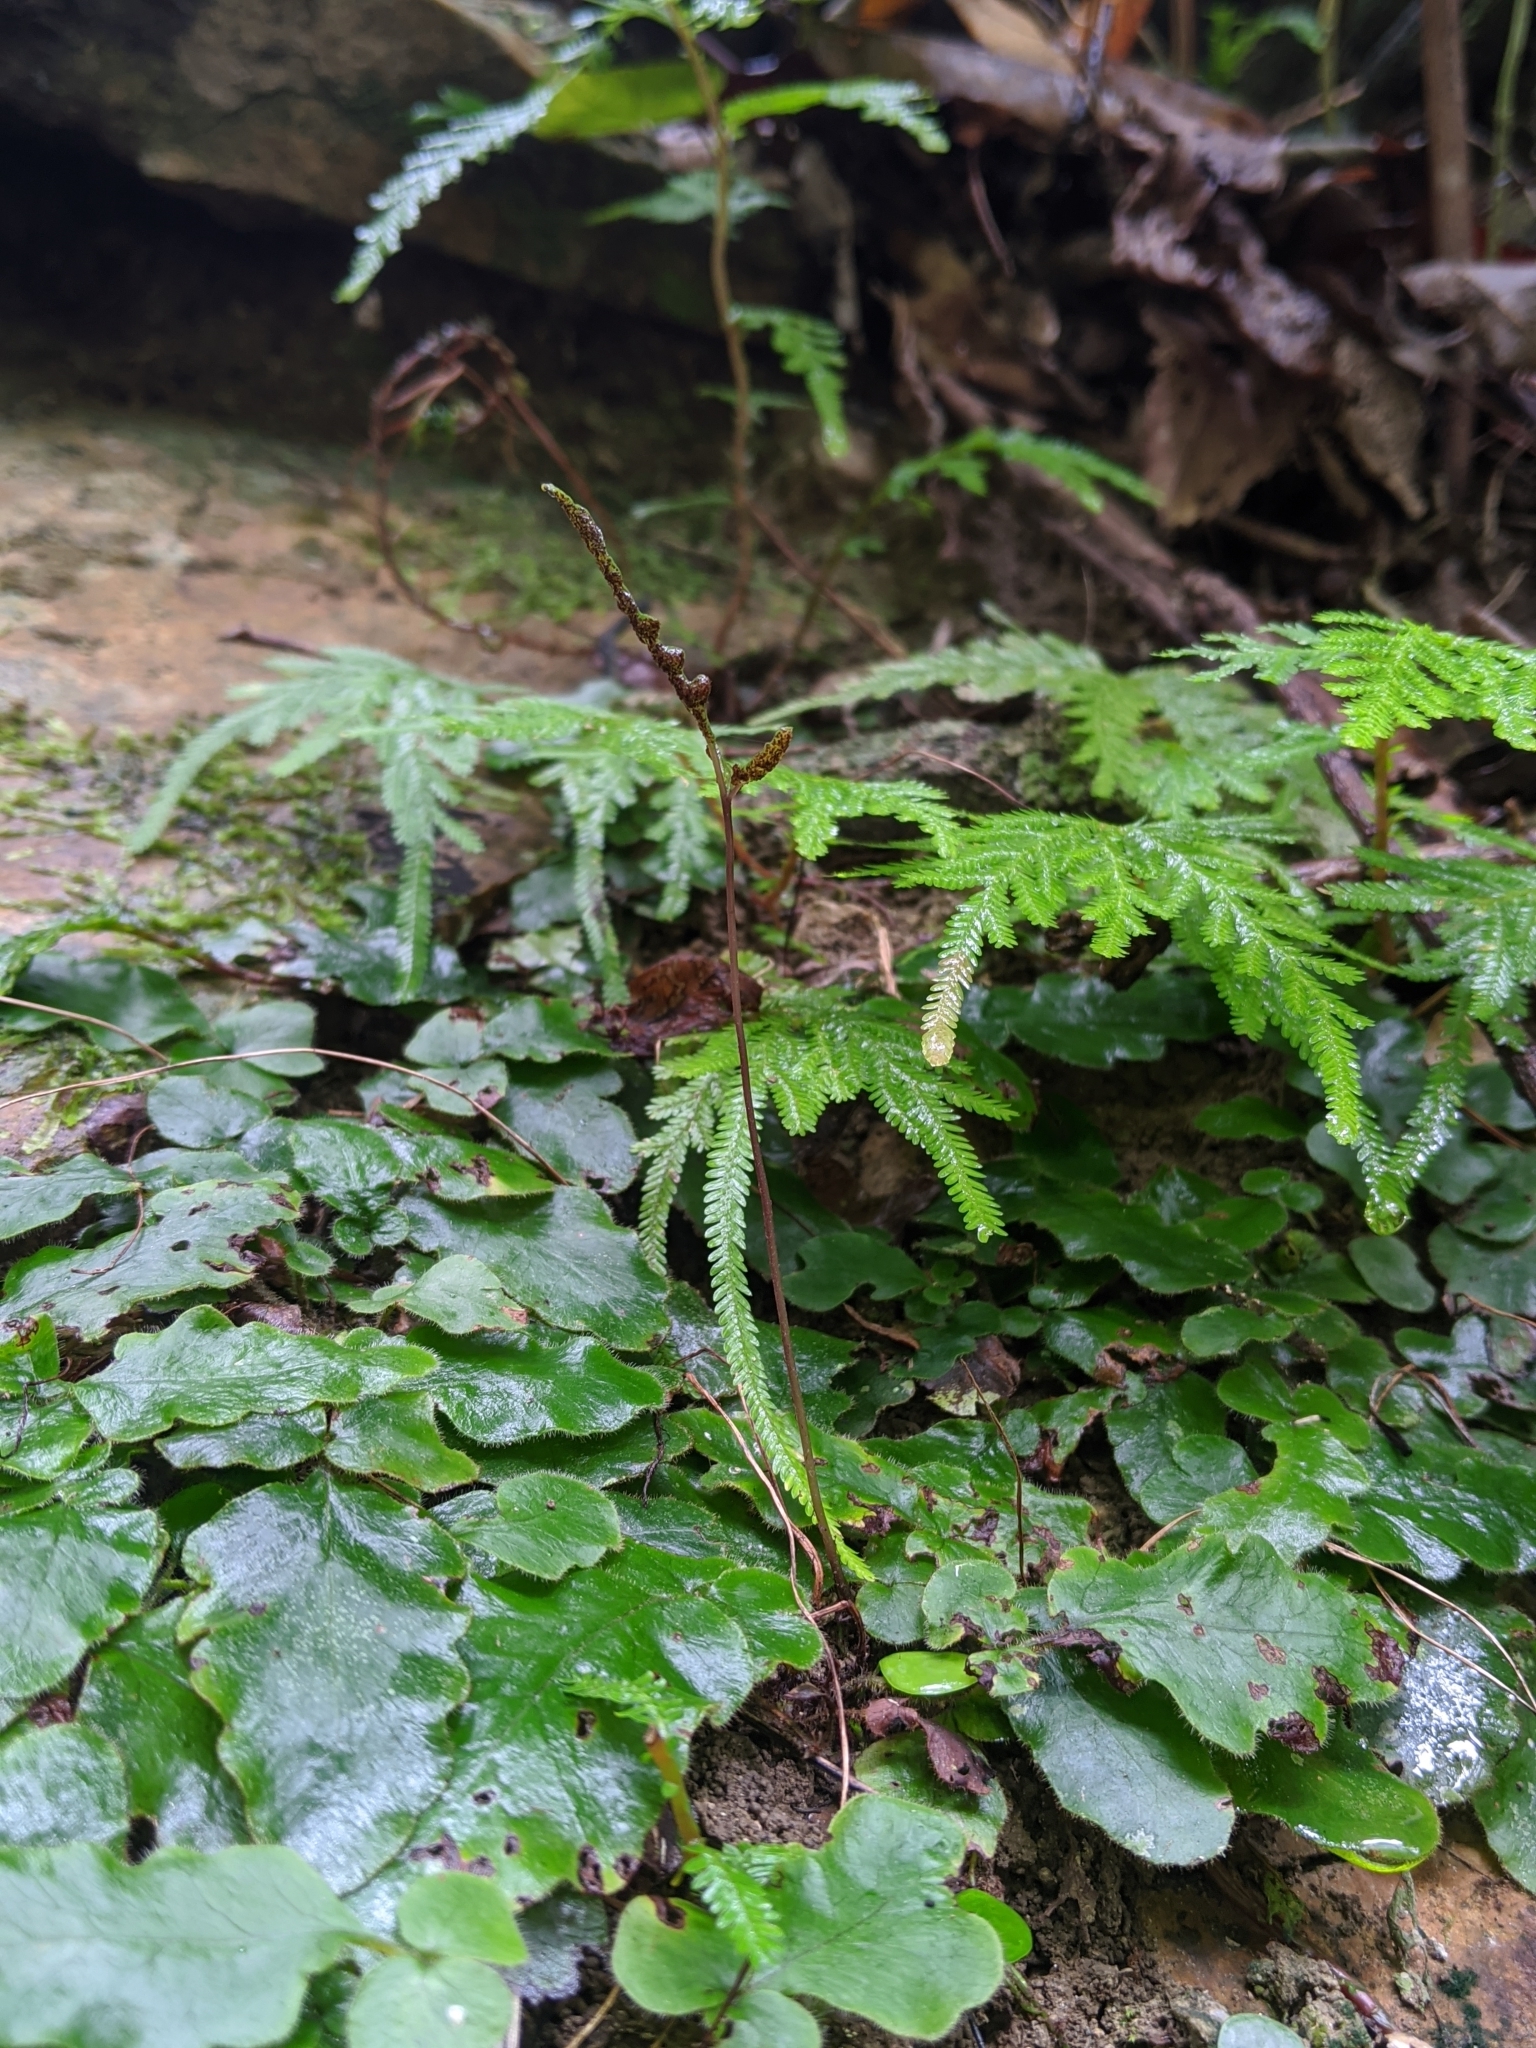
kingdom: Plantae
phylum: Tracheophyta
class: Polypodiopsida
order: Polypodiales
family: Tectariaceae
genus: Tectaria
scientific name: Tectaria zeilanica
